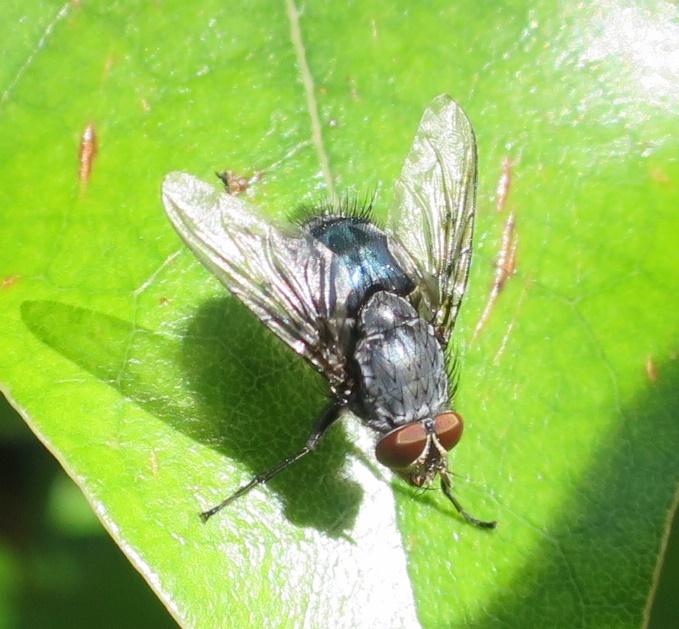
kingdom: Animalia
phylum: Arthropoda
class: Insecta
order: Diptera
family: Calliphoridae
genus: Calliphora
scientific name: Calliphora vicina
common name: Common blow flie
